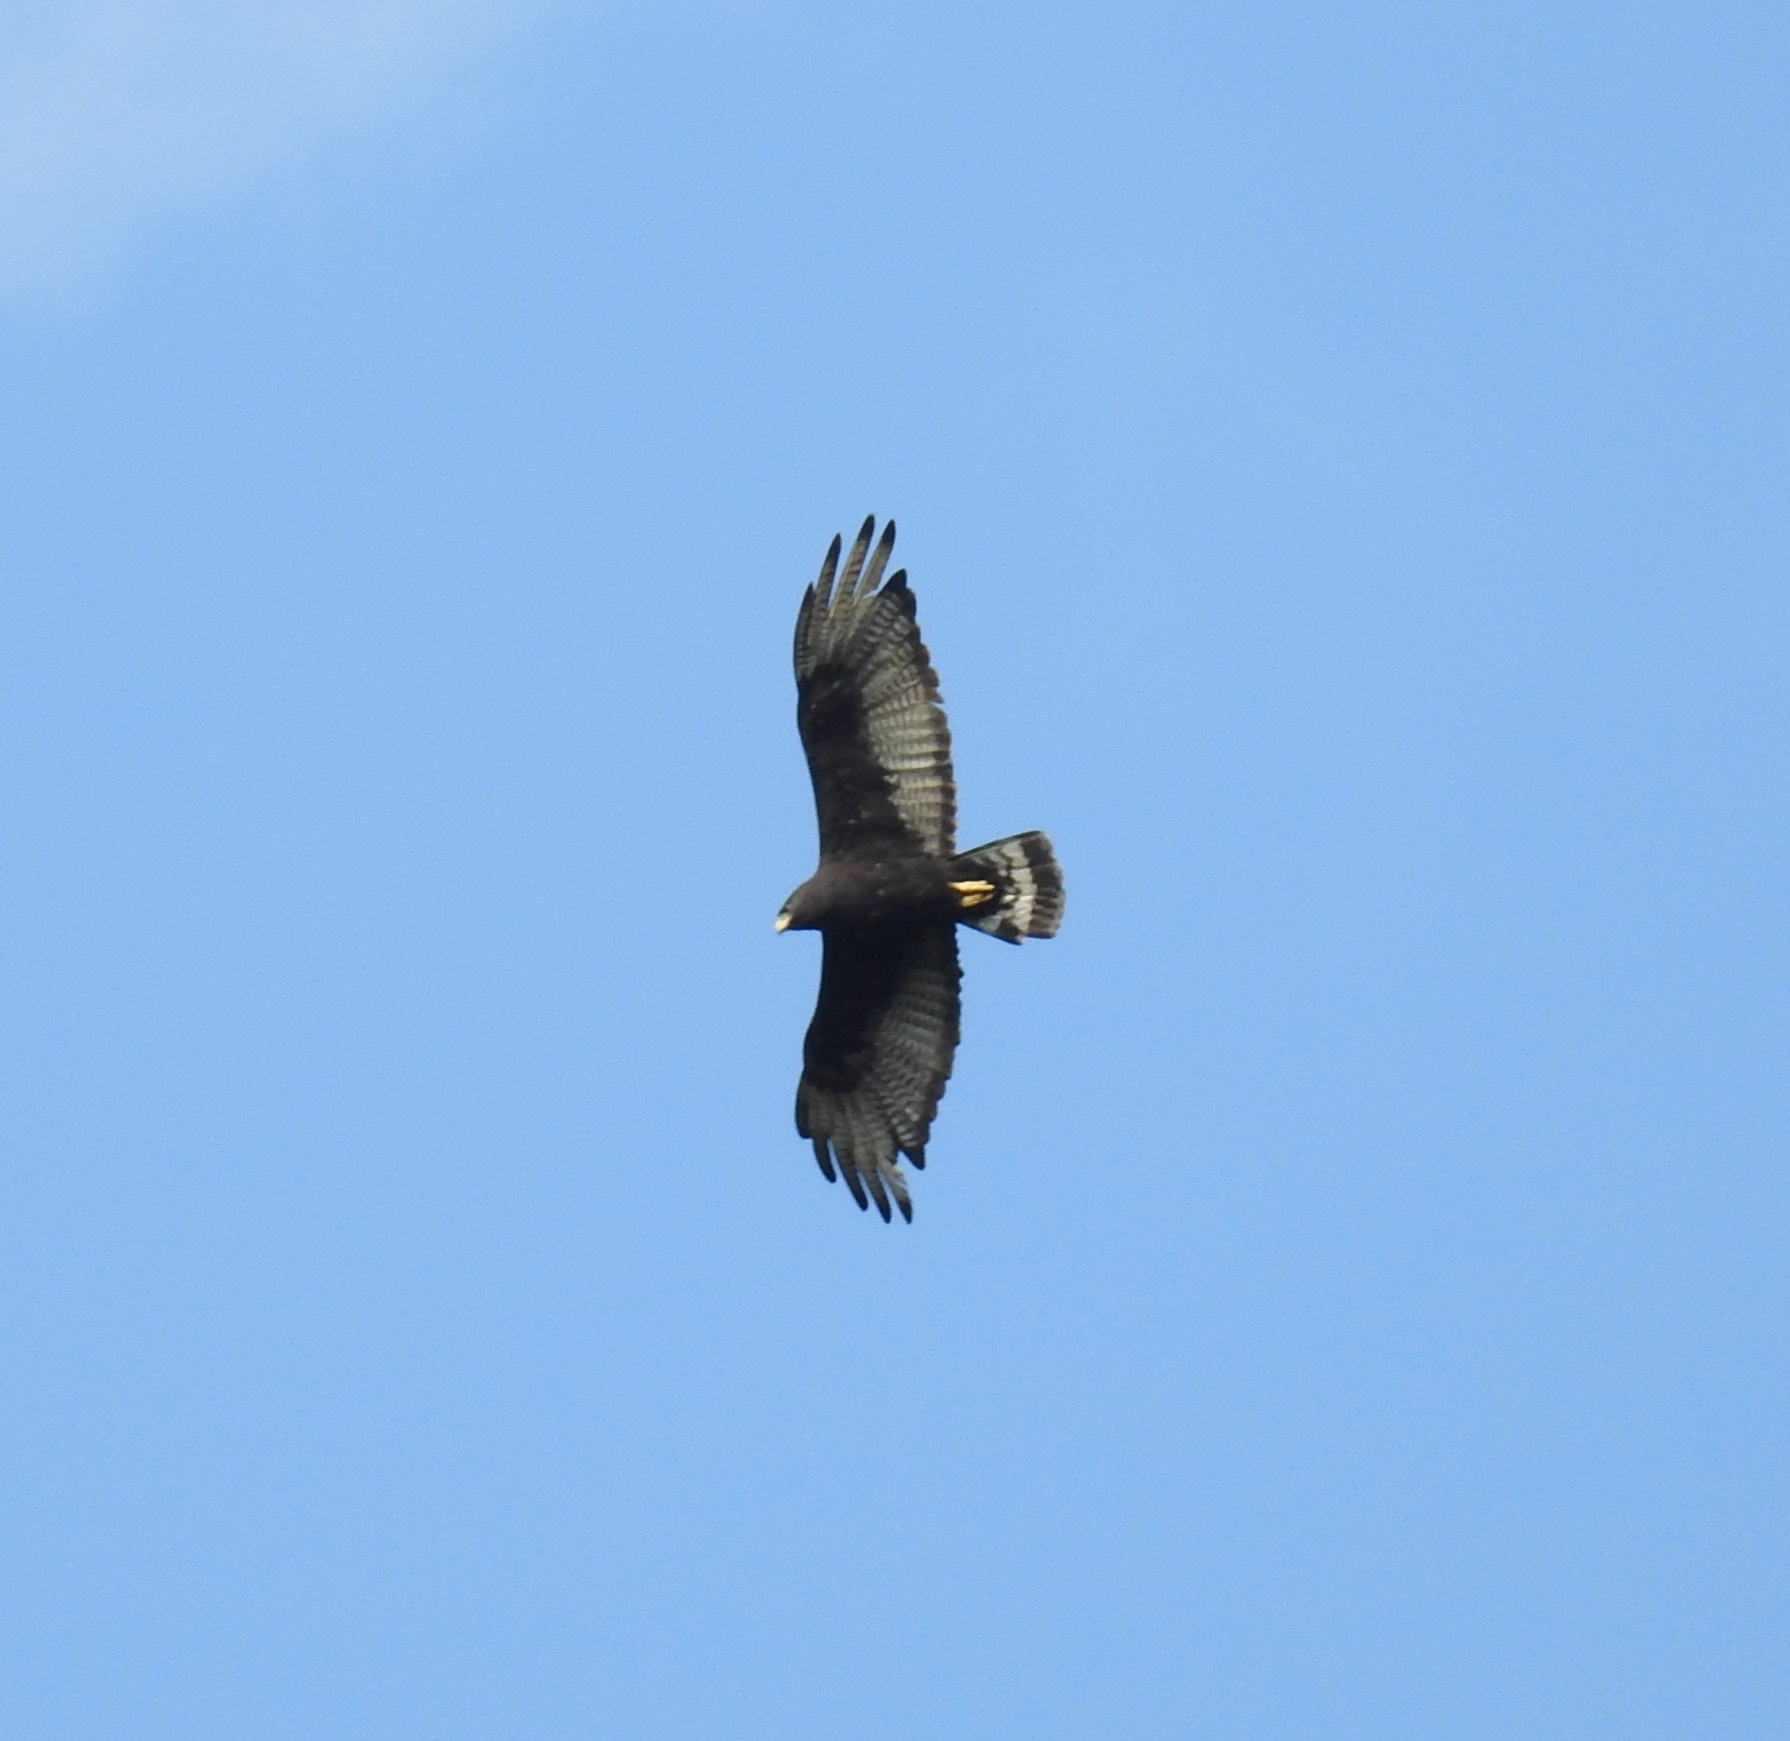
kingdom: Animalia
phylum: Chordata
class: Aves
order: Accipitriformes
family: Accipitridae
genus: Buteo
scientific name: Buteo albonotatus
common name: Zone-tailed hawk
